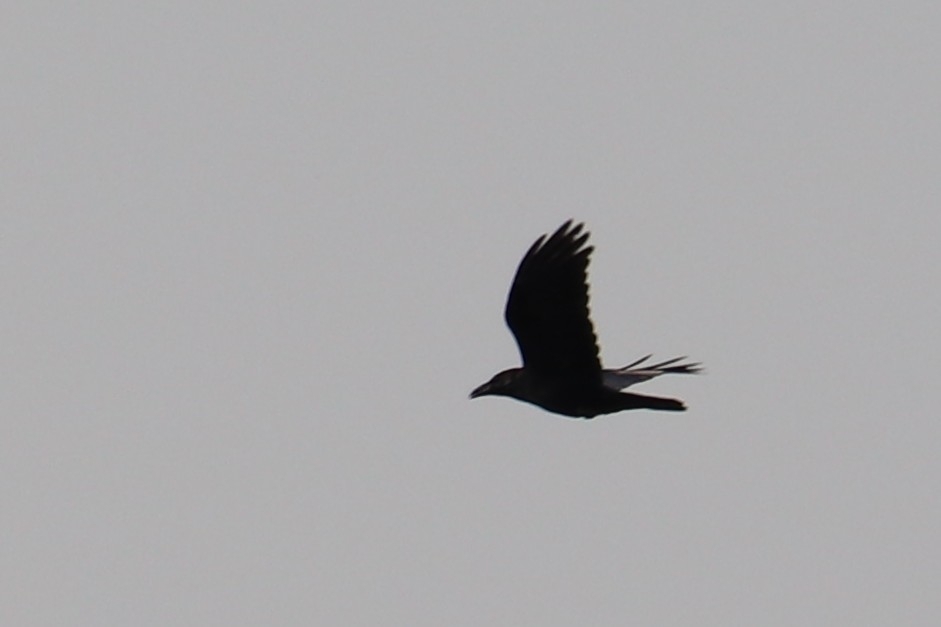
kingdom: Animalia
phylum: Chordata
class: Aves
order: Passeriformes
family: Corvidae
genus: Corvus
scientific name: Corvus corax
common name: Common raven
